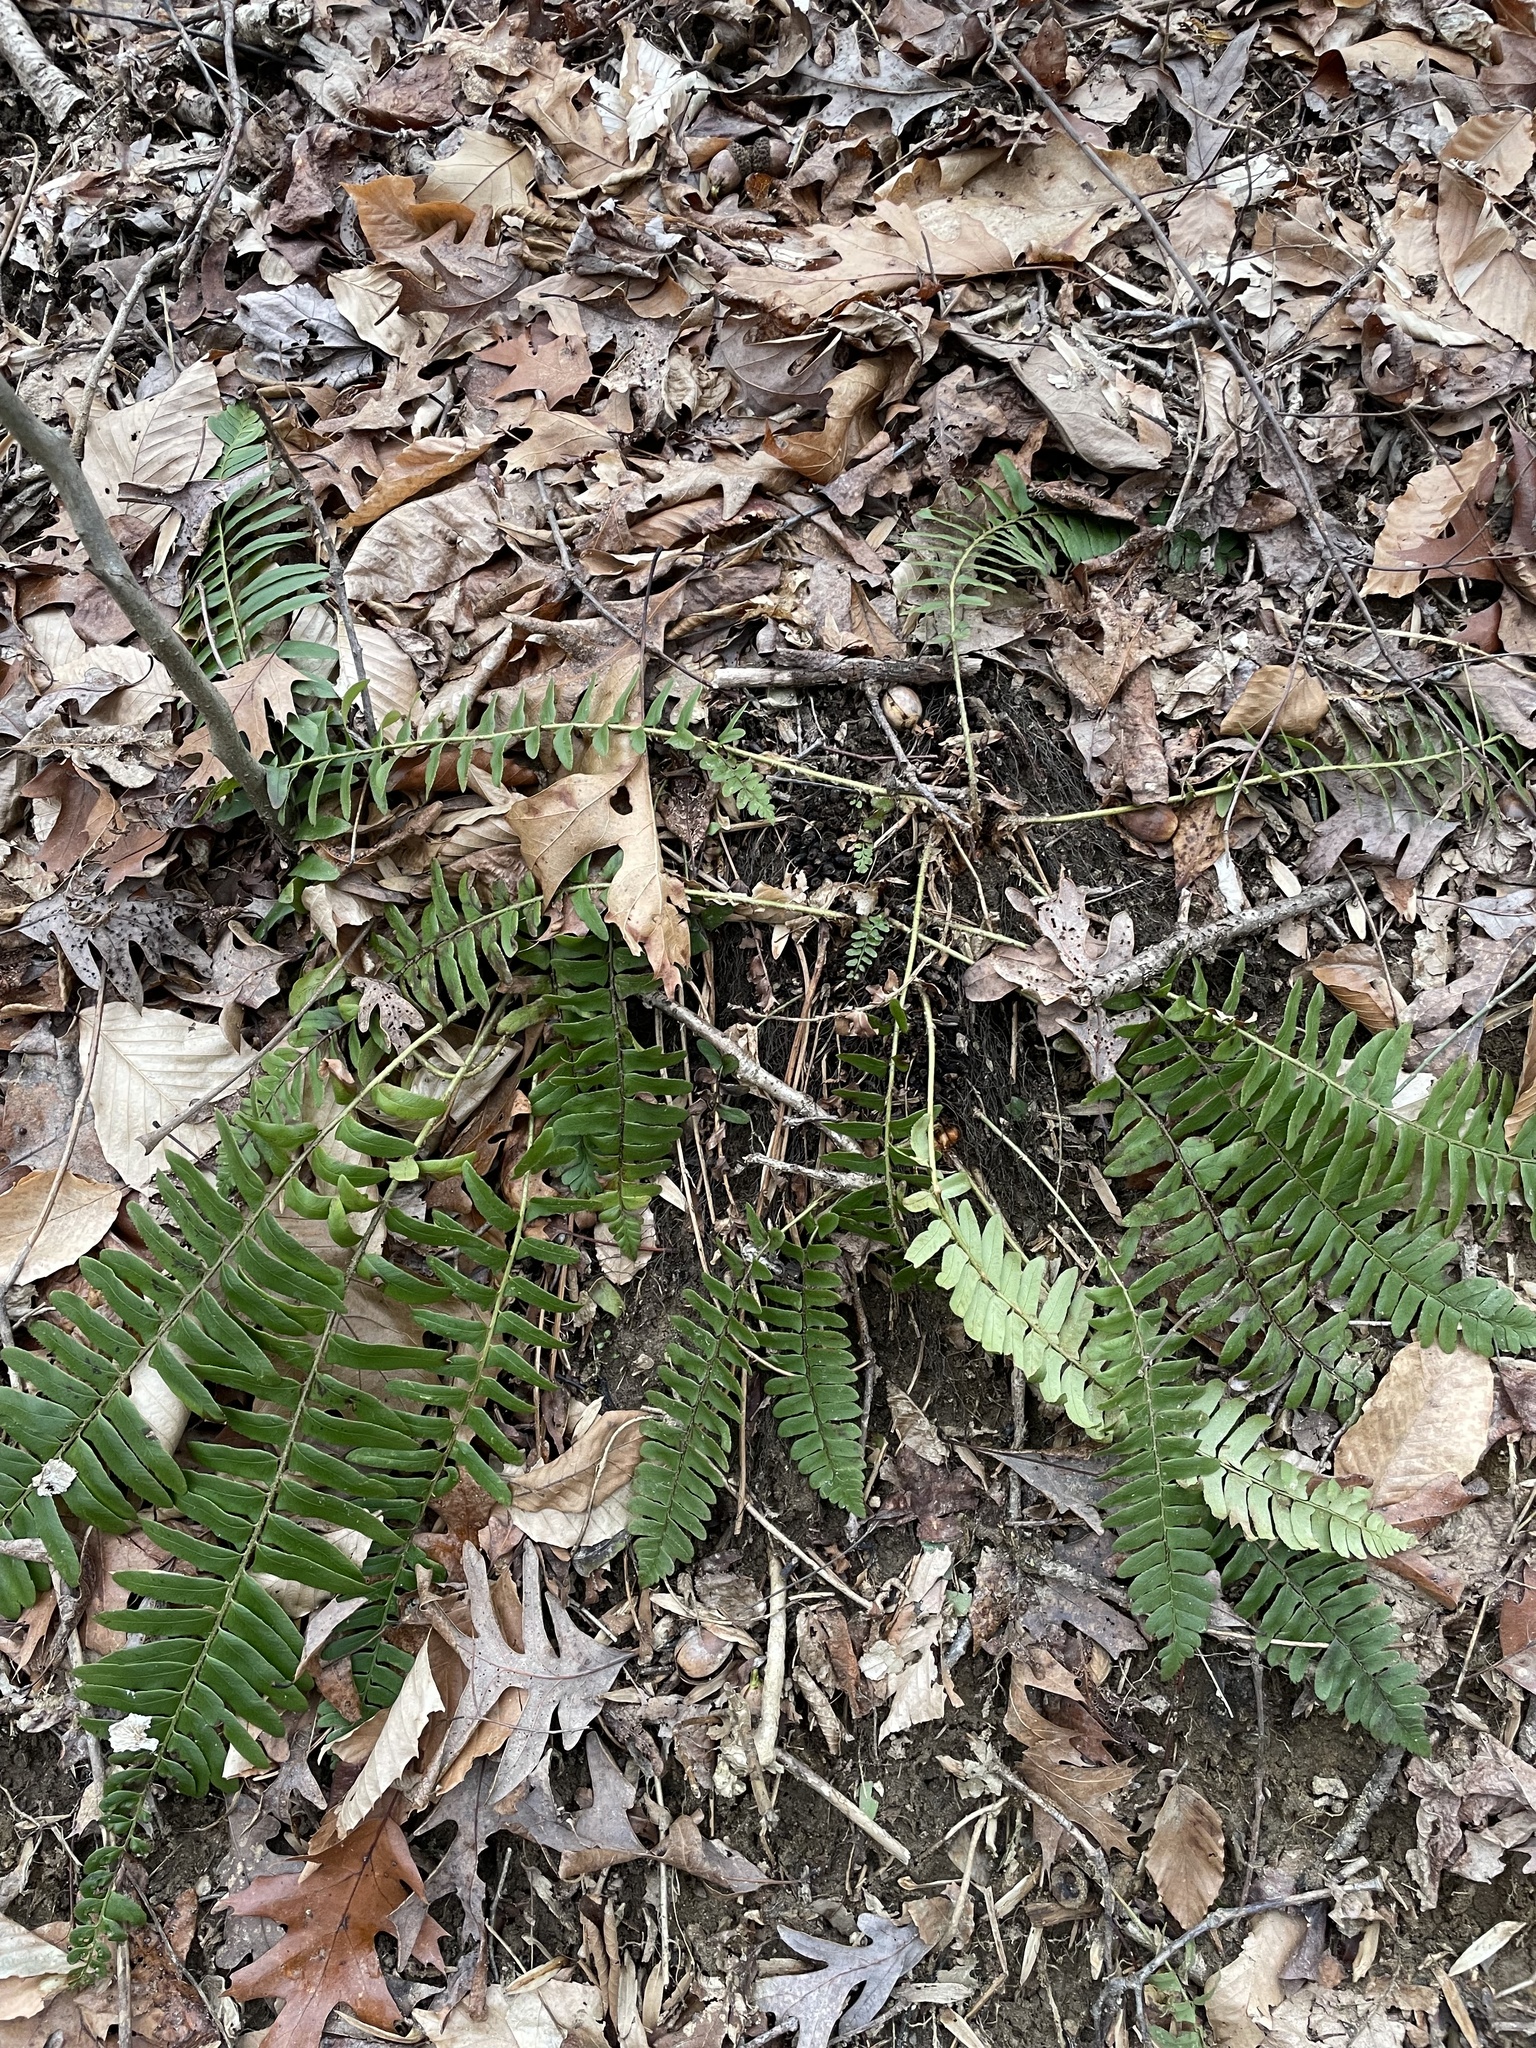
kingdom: Plantae
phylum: Tracheophyta
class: Polypodiopsida
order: Polypodiales
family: Dryopteridaceae
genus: Polystichum
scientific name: Polystichum acrostichoides
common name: Christmas fern
